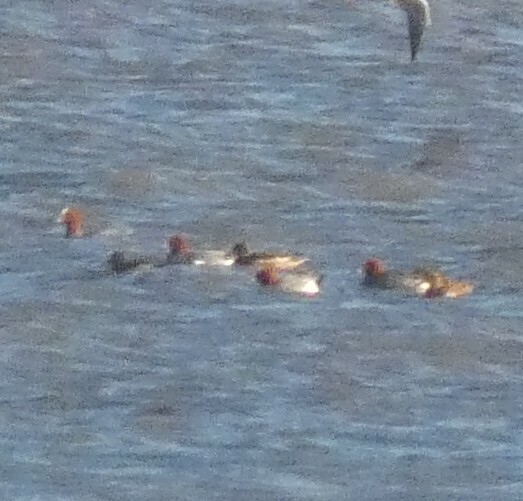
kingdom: Animalia
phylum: Chordata
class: Aves
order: Anseriformes
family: Anatidae
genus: Mareca
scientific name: Mareca penelope
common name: Eurasian wigeon
